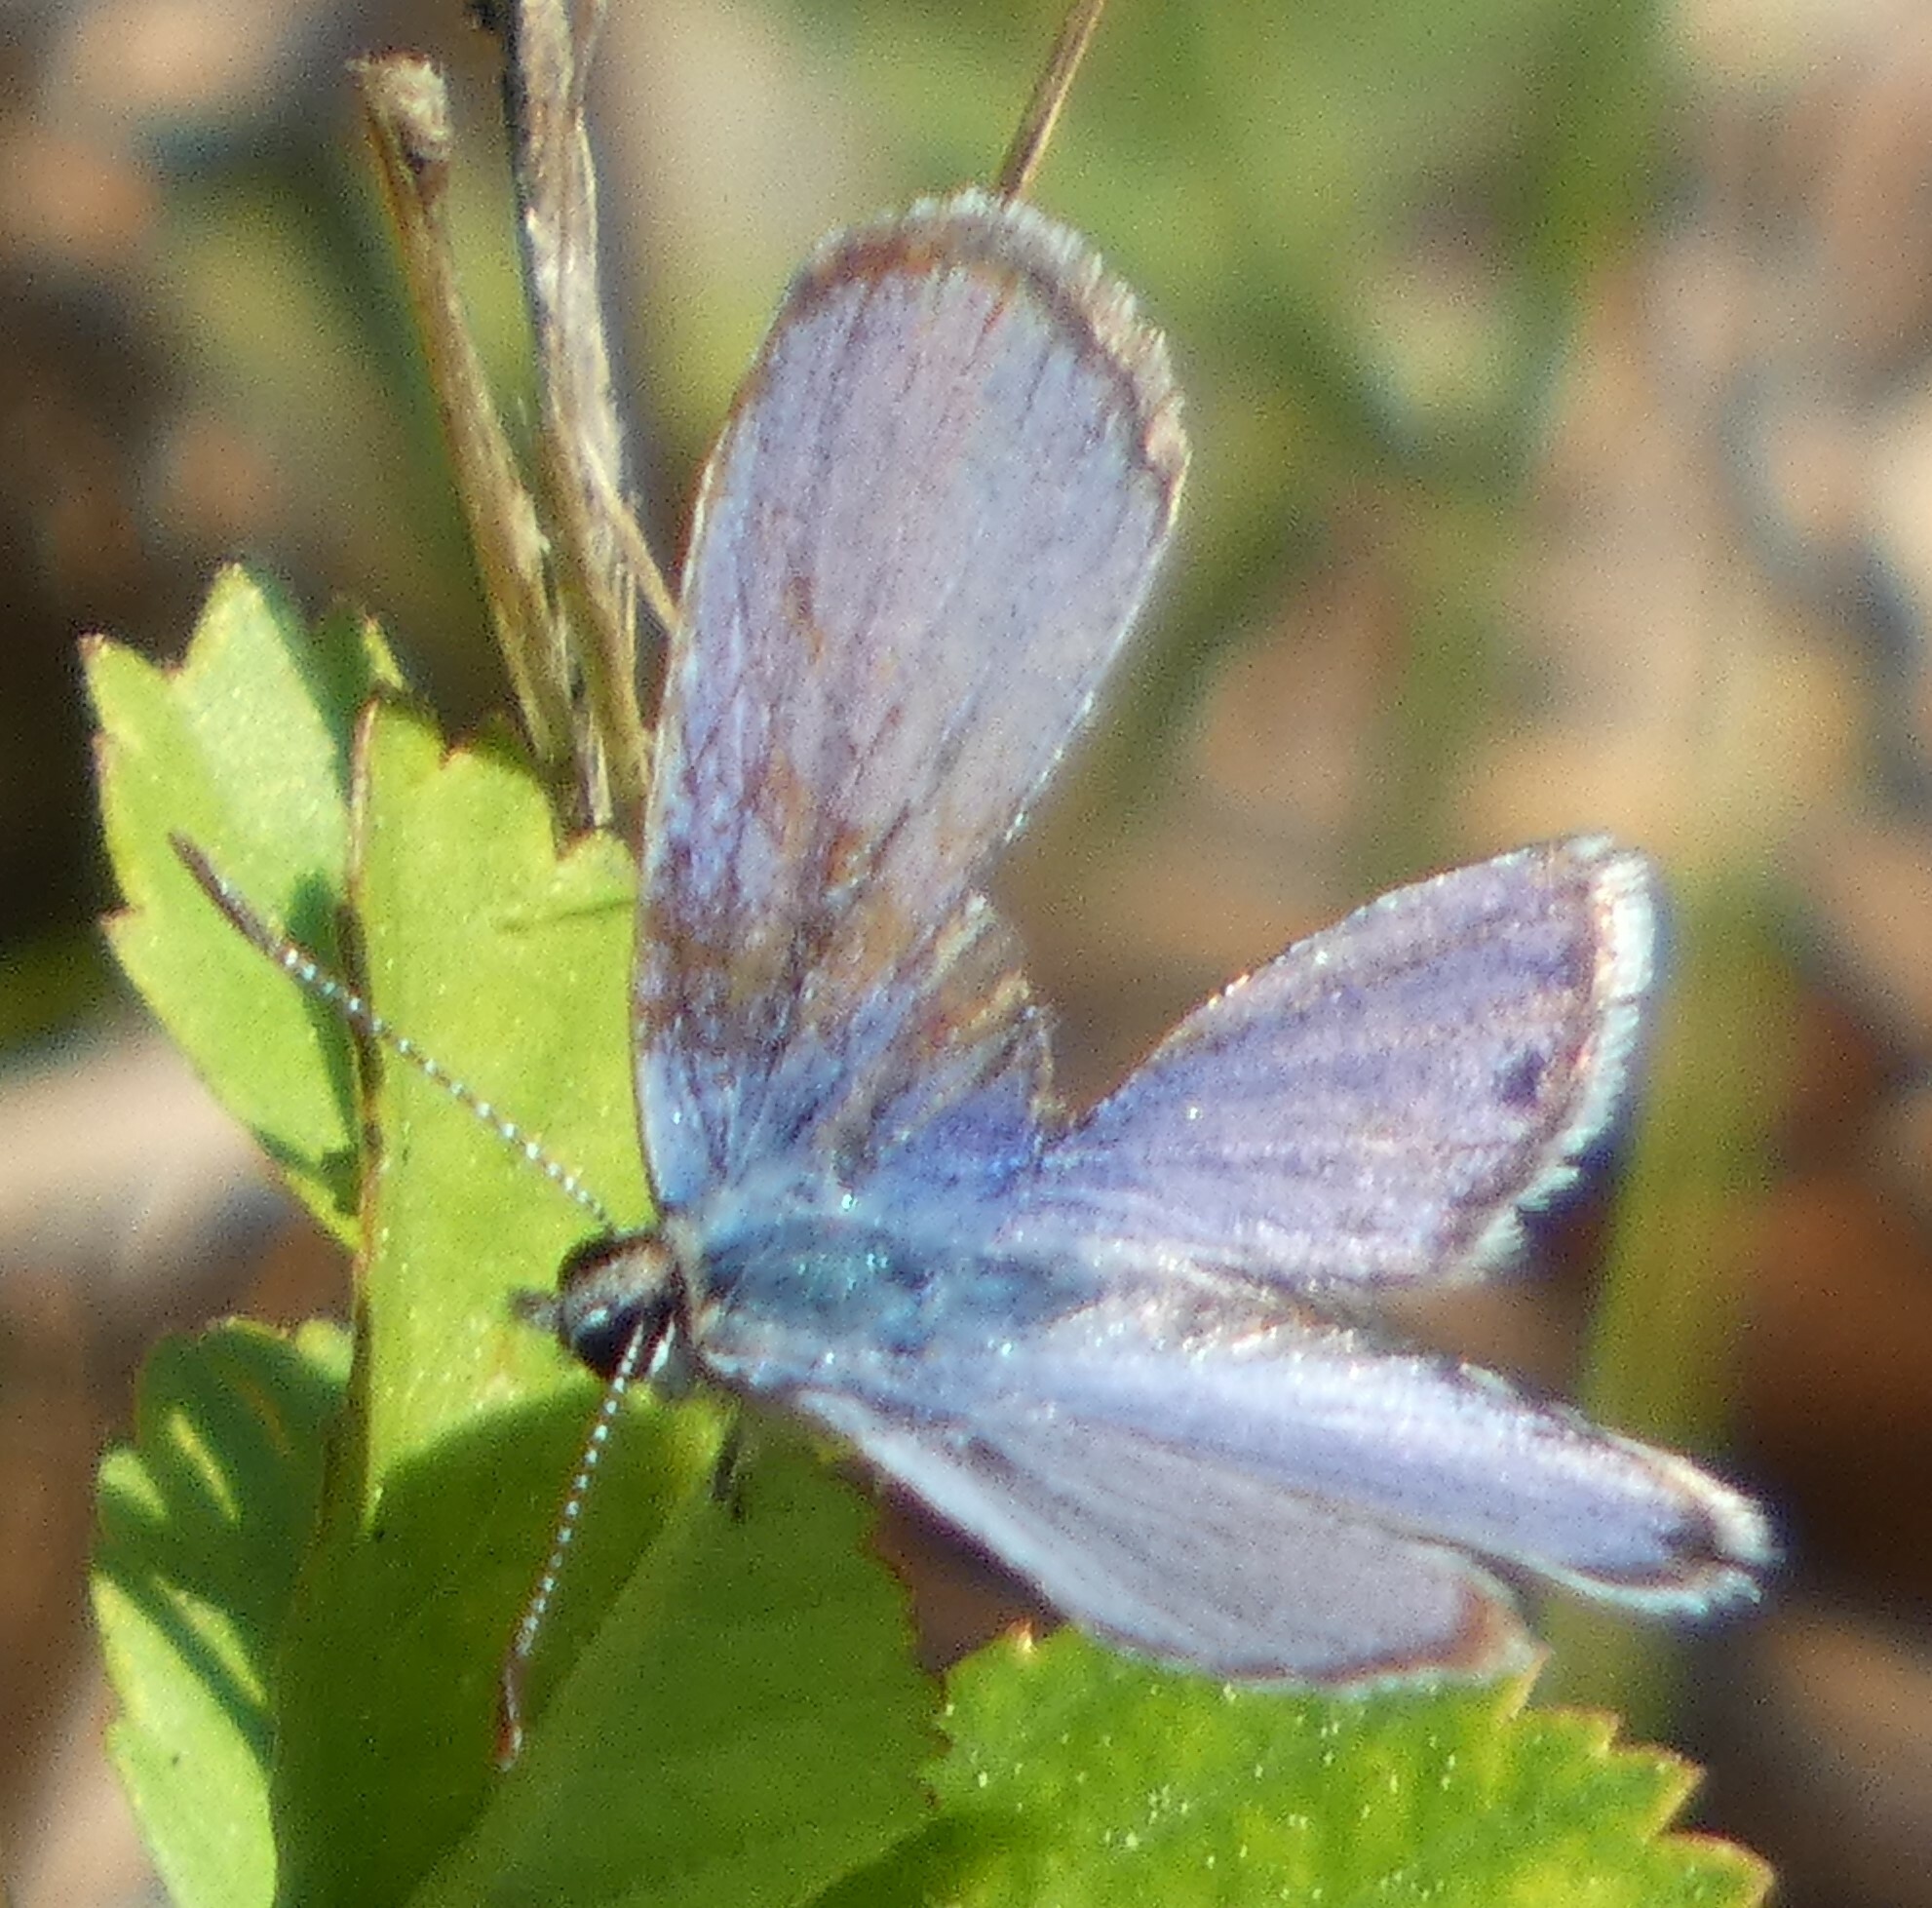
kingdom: Animalia
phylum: Arthropoda
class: Insecta
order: Lepidoptera
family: Lycaenidae
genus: Hemiargus
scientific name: Hemiargus ceraunus
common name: Ceraunus blue
